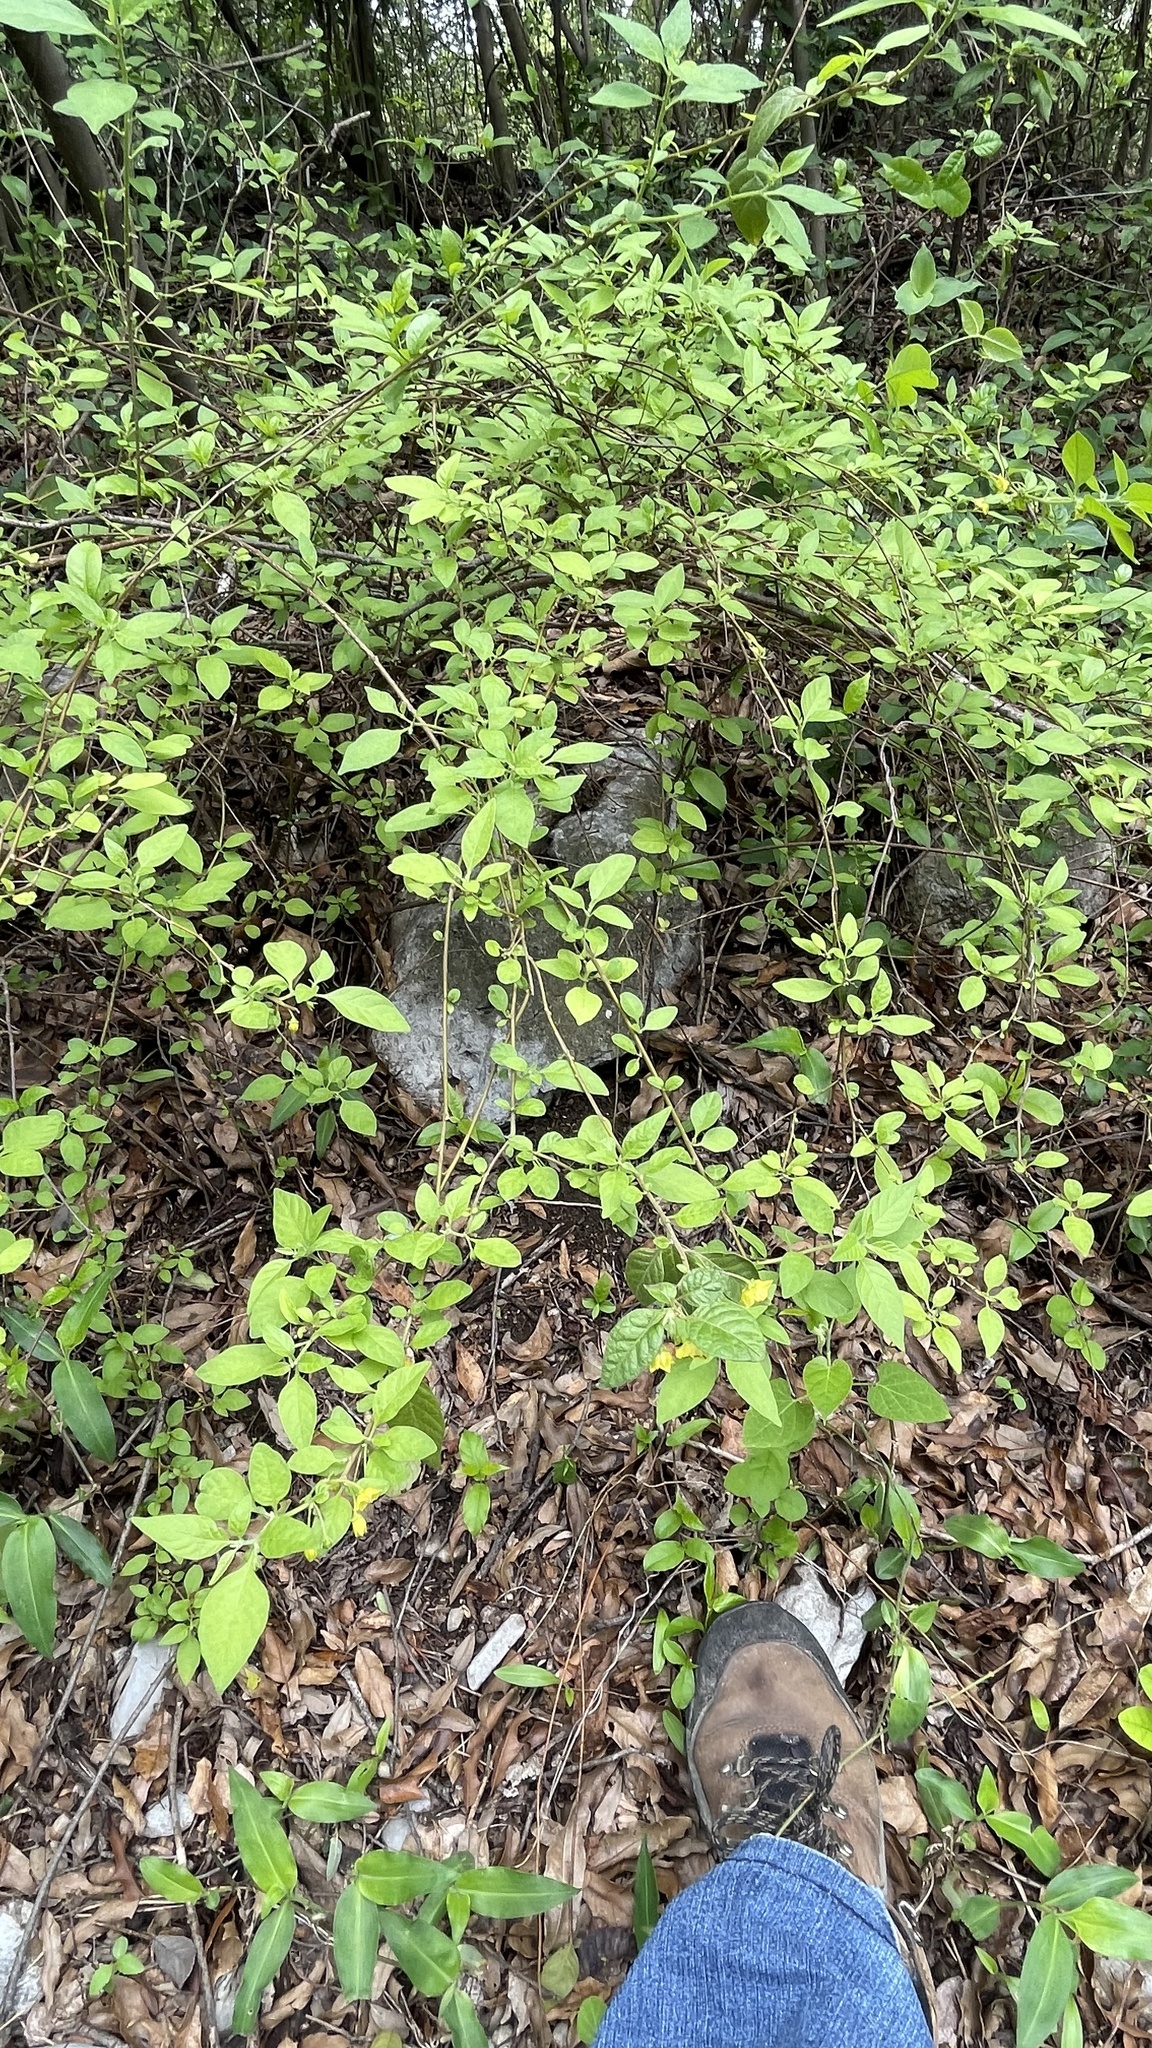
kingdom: Plantae
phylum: Tracheophyta
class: Magnoliopsida
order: Solanales
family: Solanaceae
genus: Capsicum
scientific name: Capsicum rhomboideum
